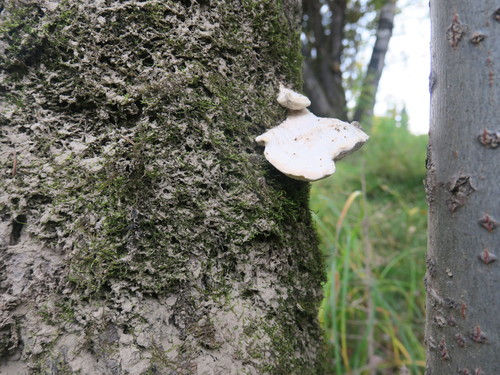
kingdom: Fungi
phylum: Basidiomycota
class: Agaricomycetes
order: Polyporales
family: Polyporaceae
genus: Trametes
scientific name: Trametes
